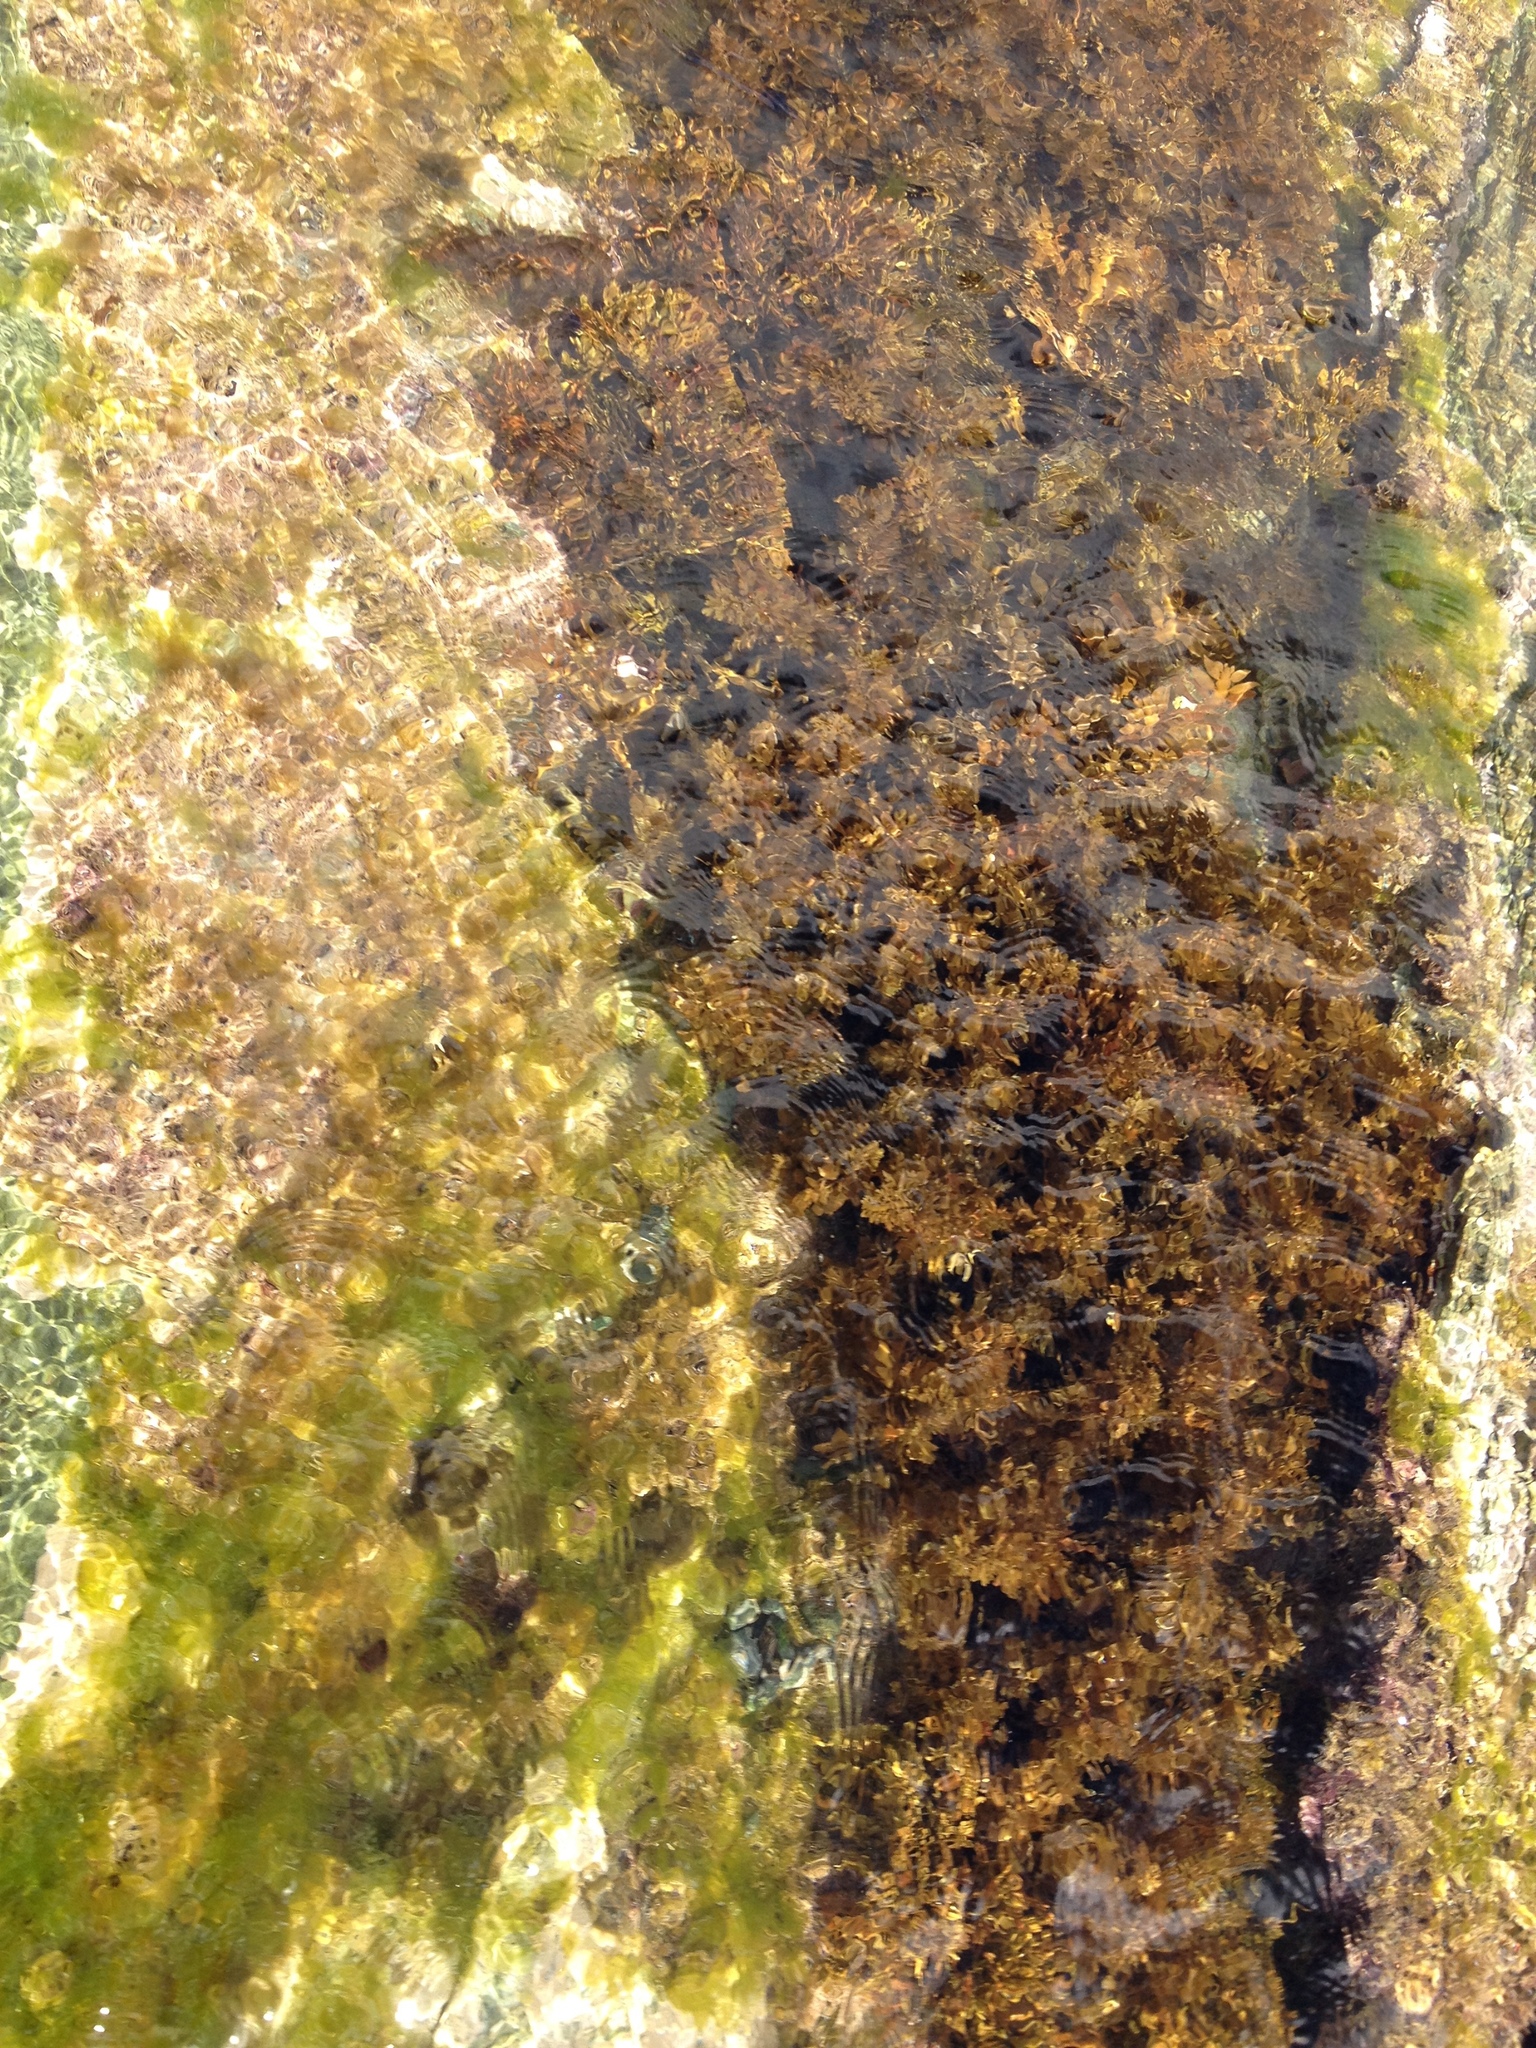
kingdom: Chromista
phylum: Ochrophyta
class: Phaeophyceae
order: Fucales
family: Sargassaceae
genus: Carpophyllum
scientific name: Carpophyllum maschalocarpum
